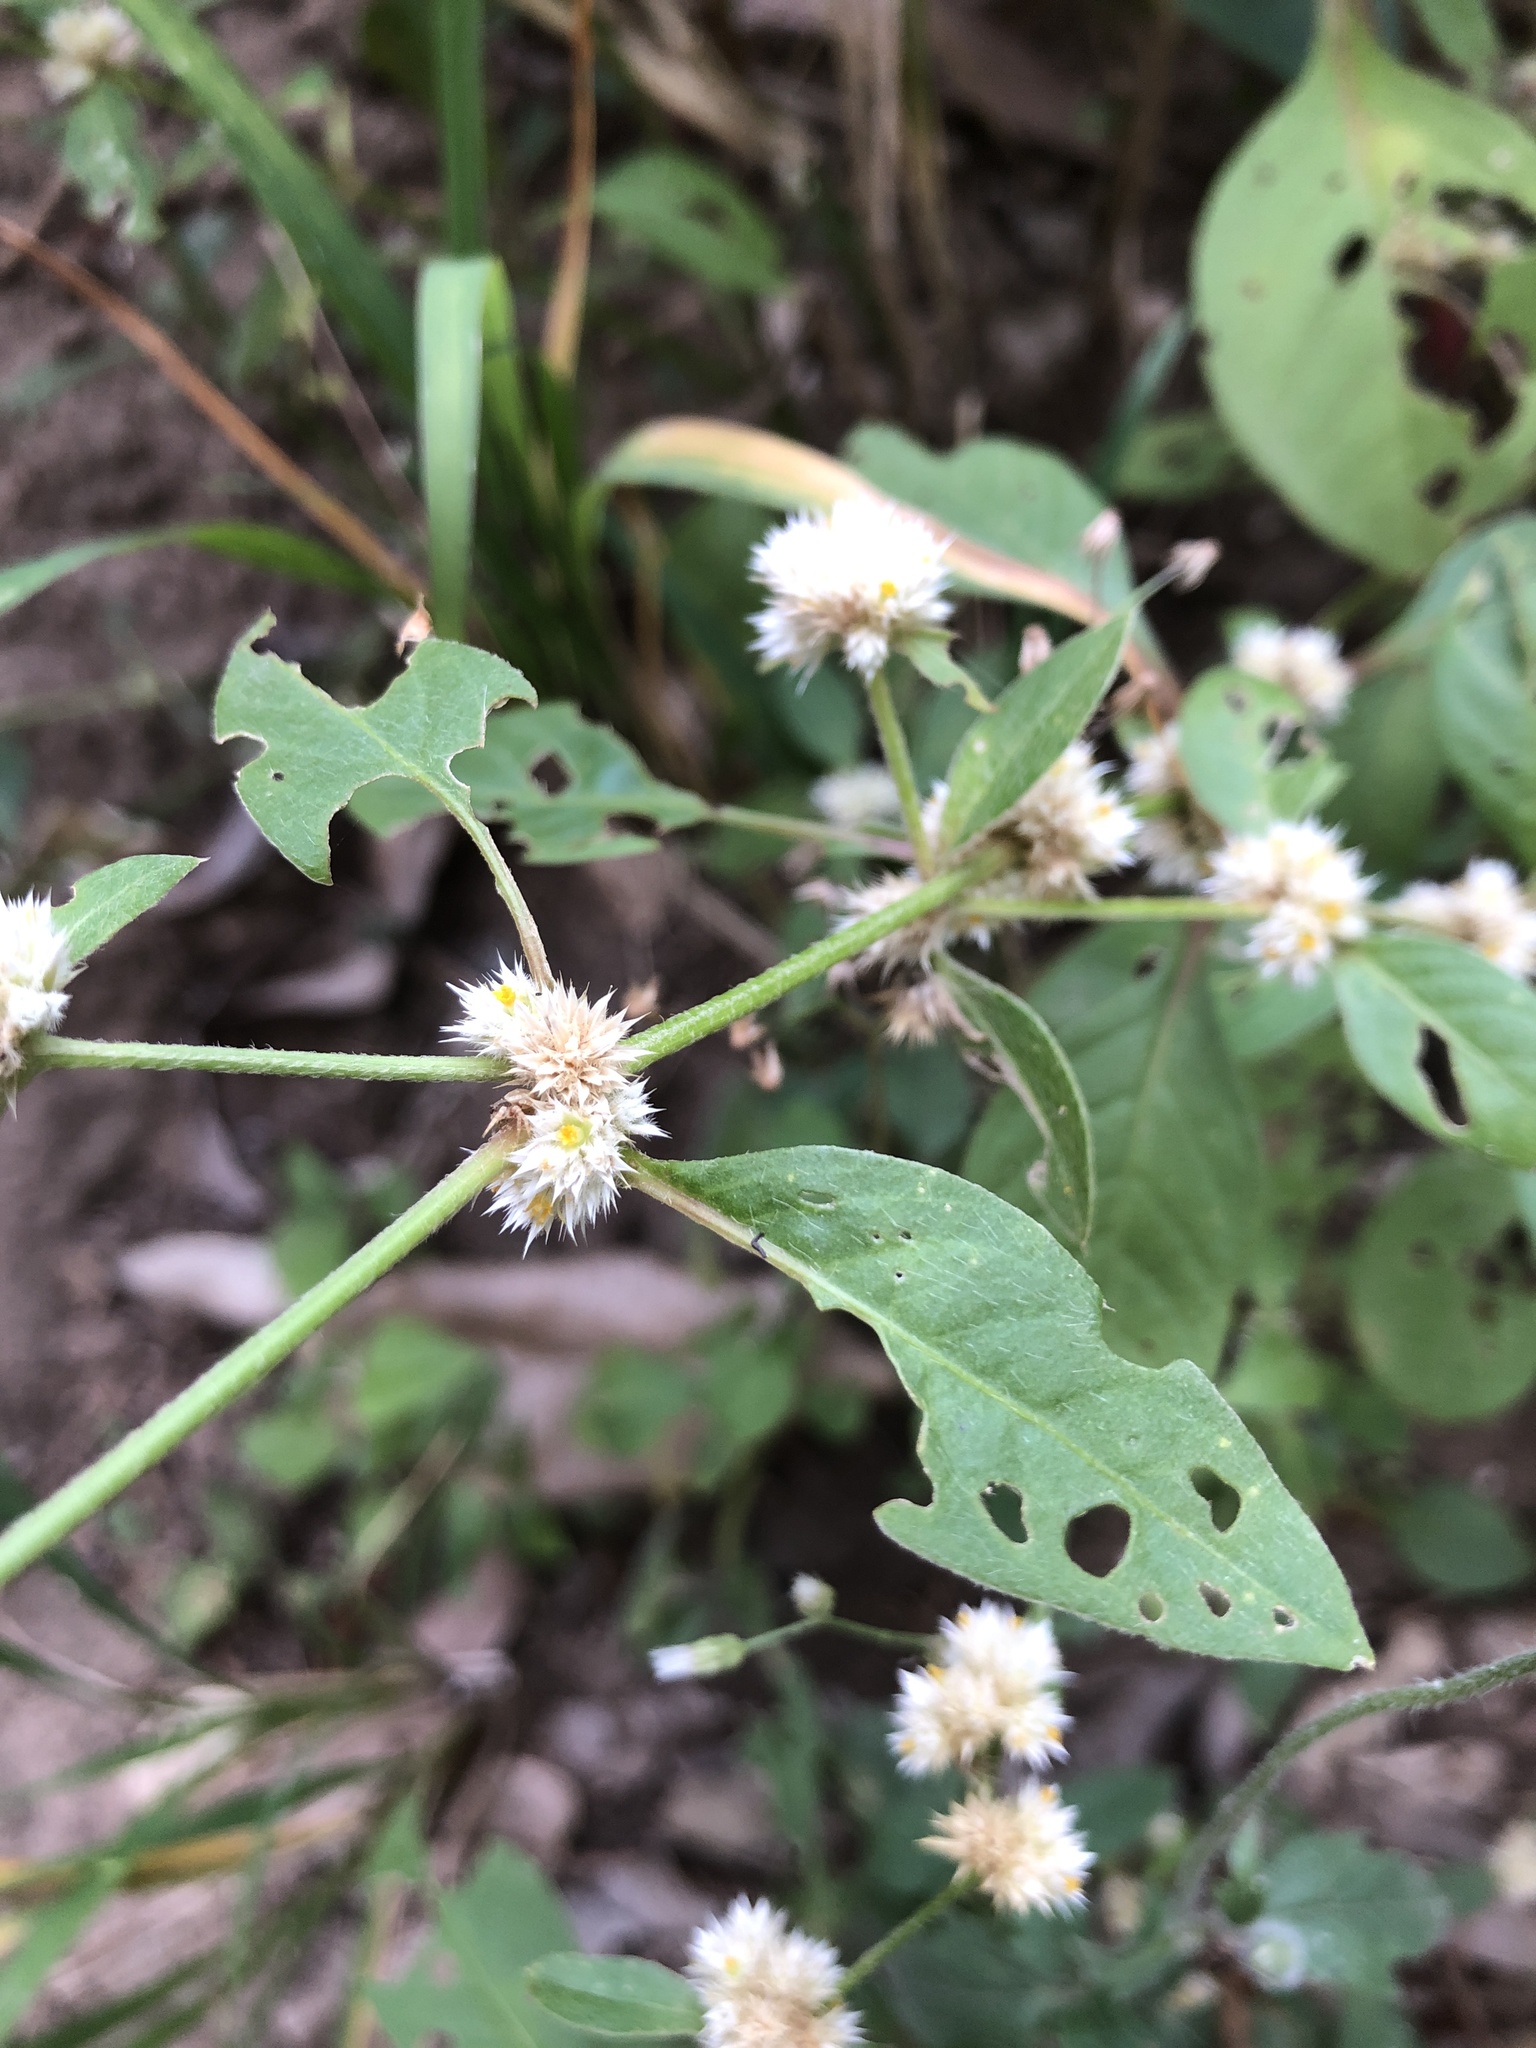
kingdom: Plantae
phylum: Tracheophyta
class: Magnoliopsida
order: Caryophyllales
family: Amaranthaceae
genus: Alternanthera
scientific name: Alternanthera ficoidea
